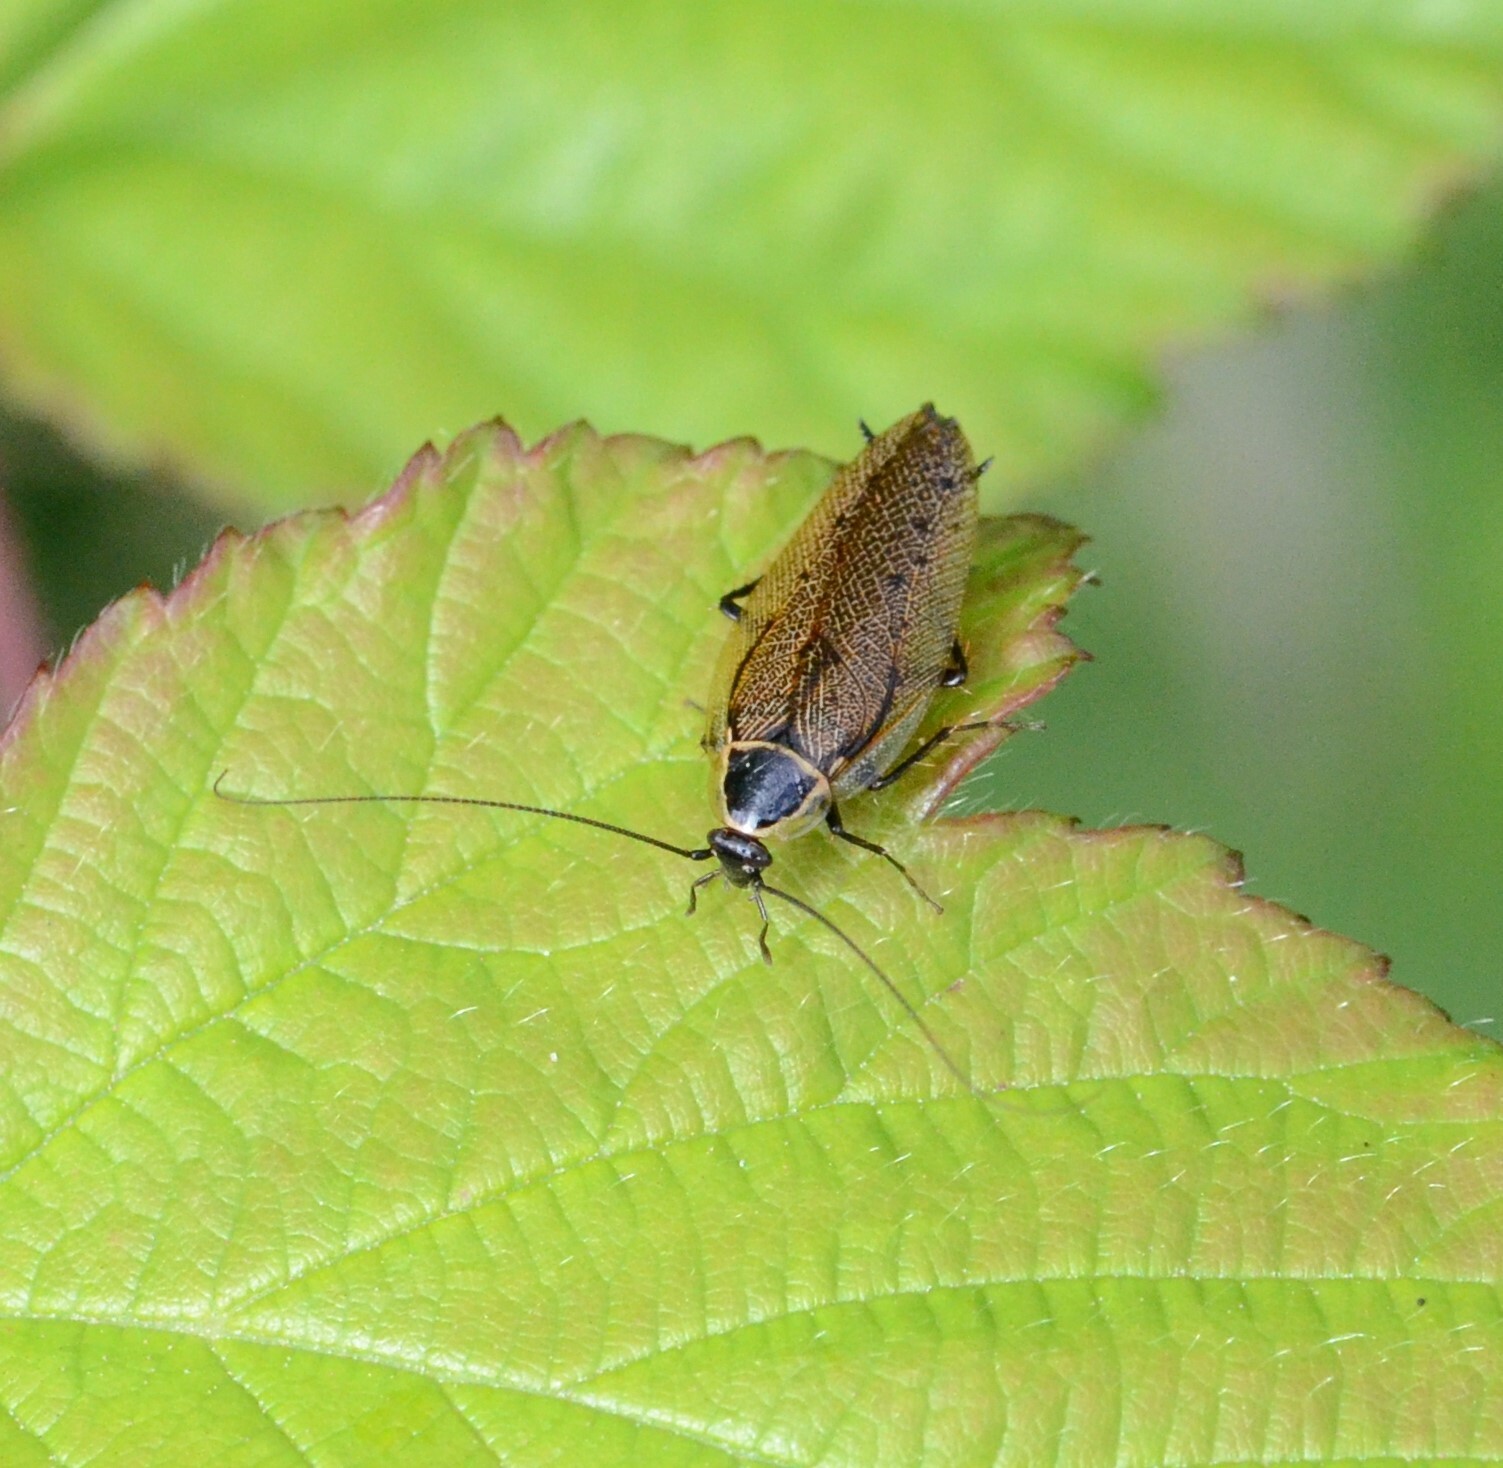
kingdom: Animalia
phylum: Arthropoda
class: Insecta
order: Blattodea
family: Ectobiidae
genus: Ectobius
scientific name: Ectobius sylvestris
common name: Forest cockroach
